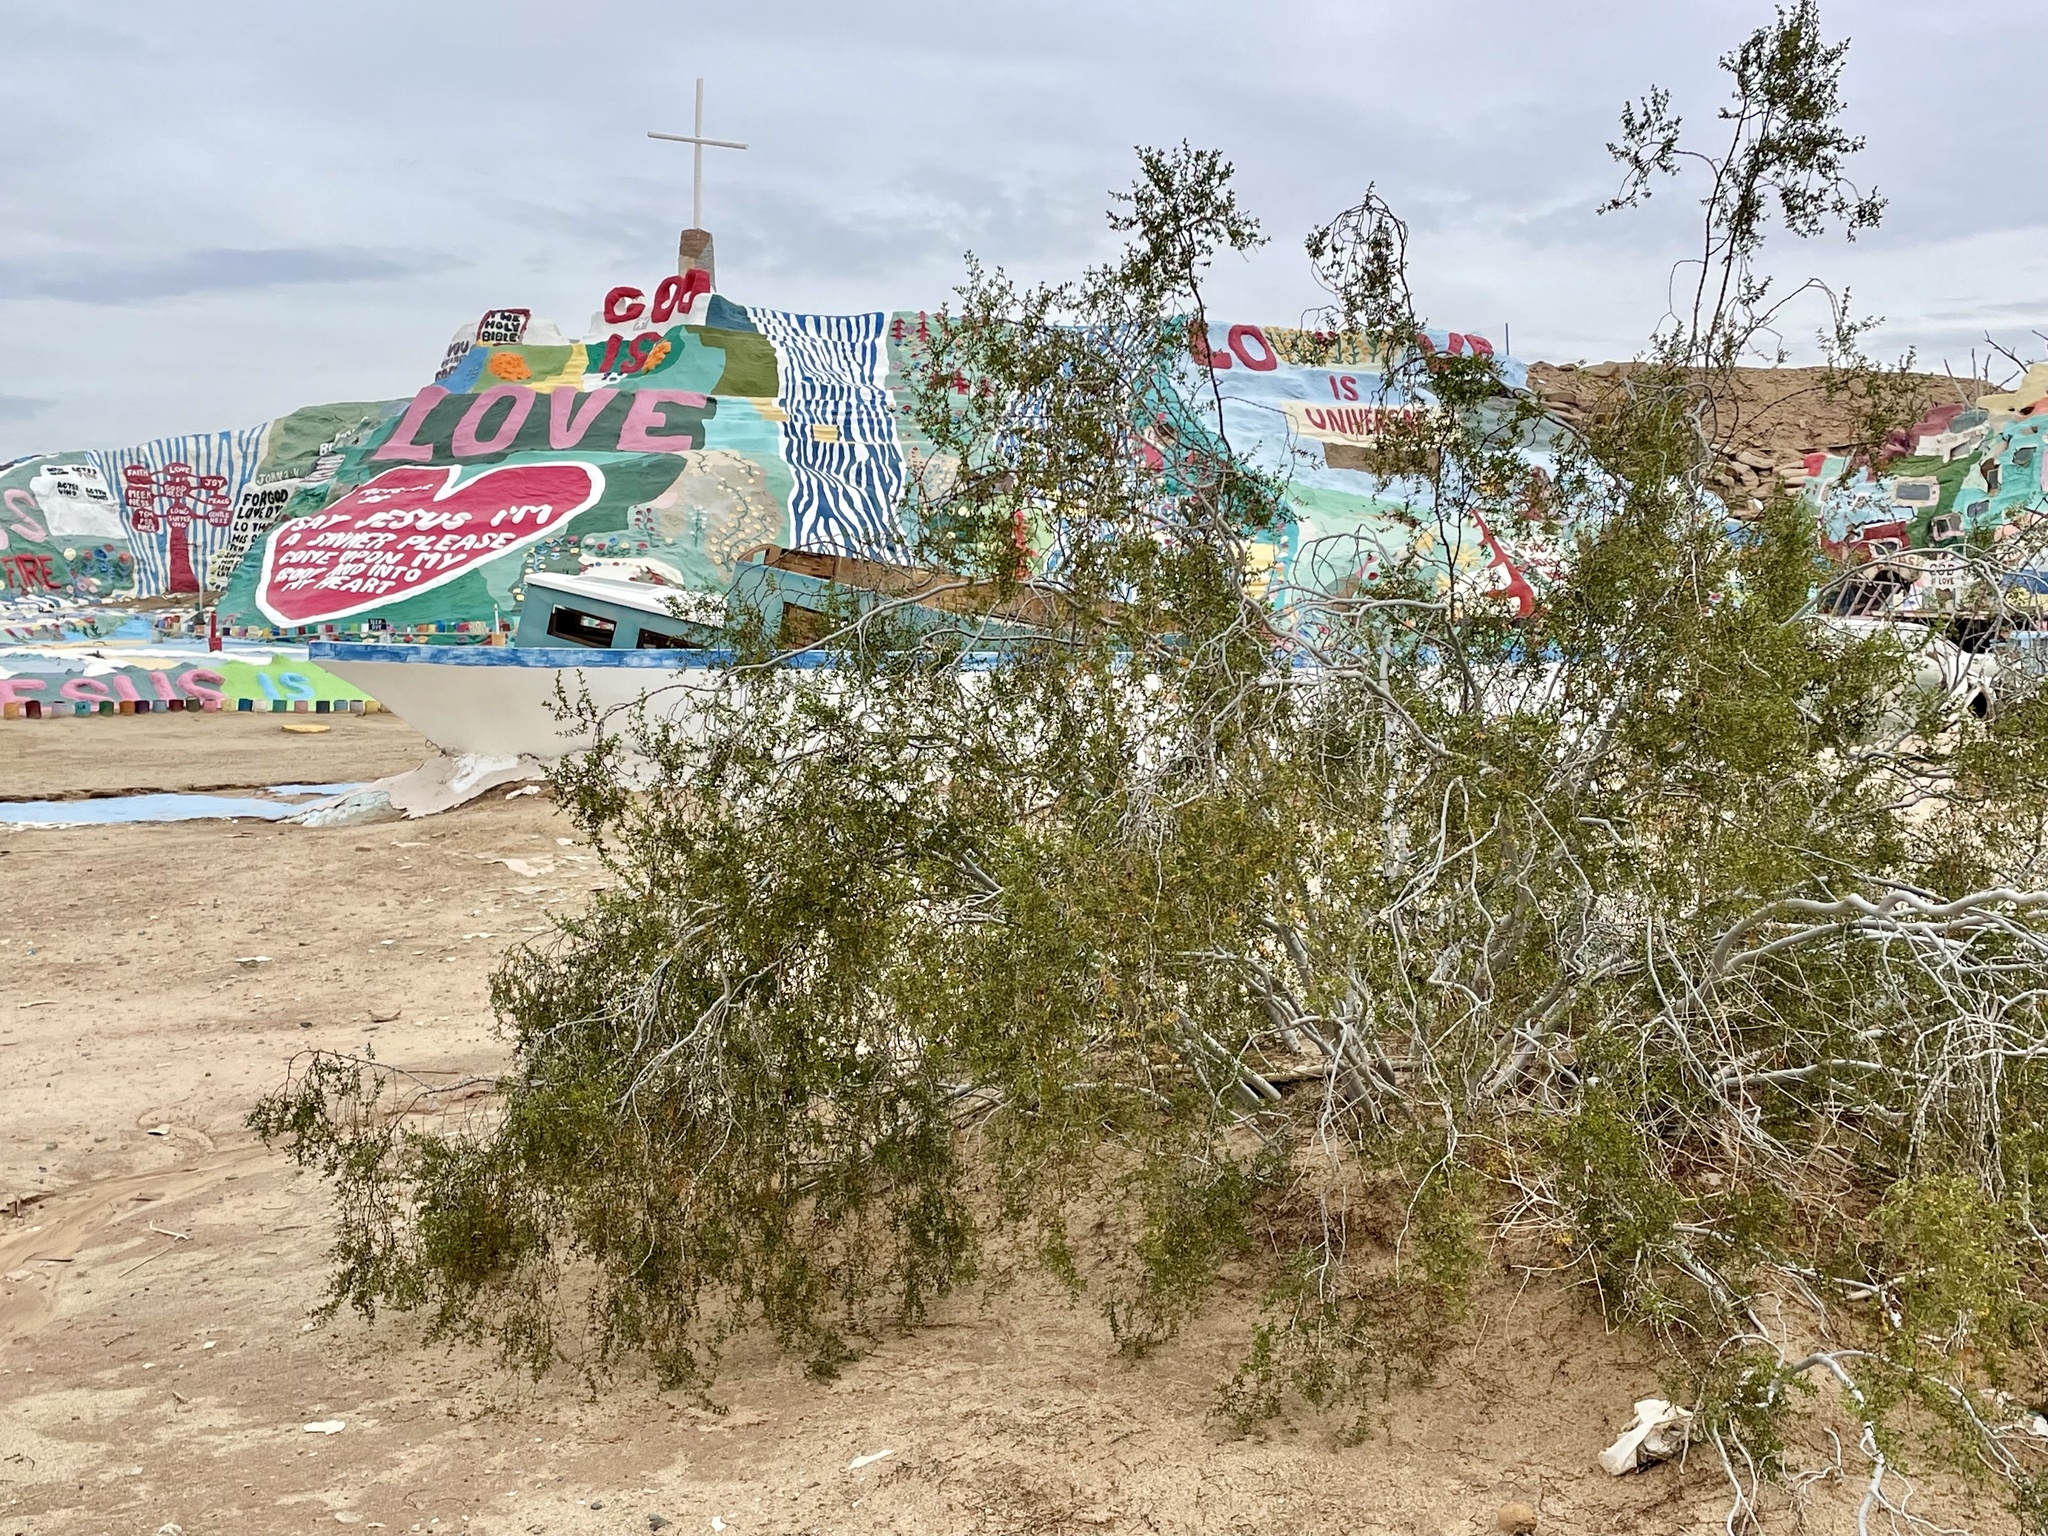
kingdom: Plantae
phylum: Tracheophyta
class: Magnoliopsida
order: Zygophyllales
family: Zygophyllaceae
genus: Larrea
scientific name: Larrea tridentata
